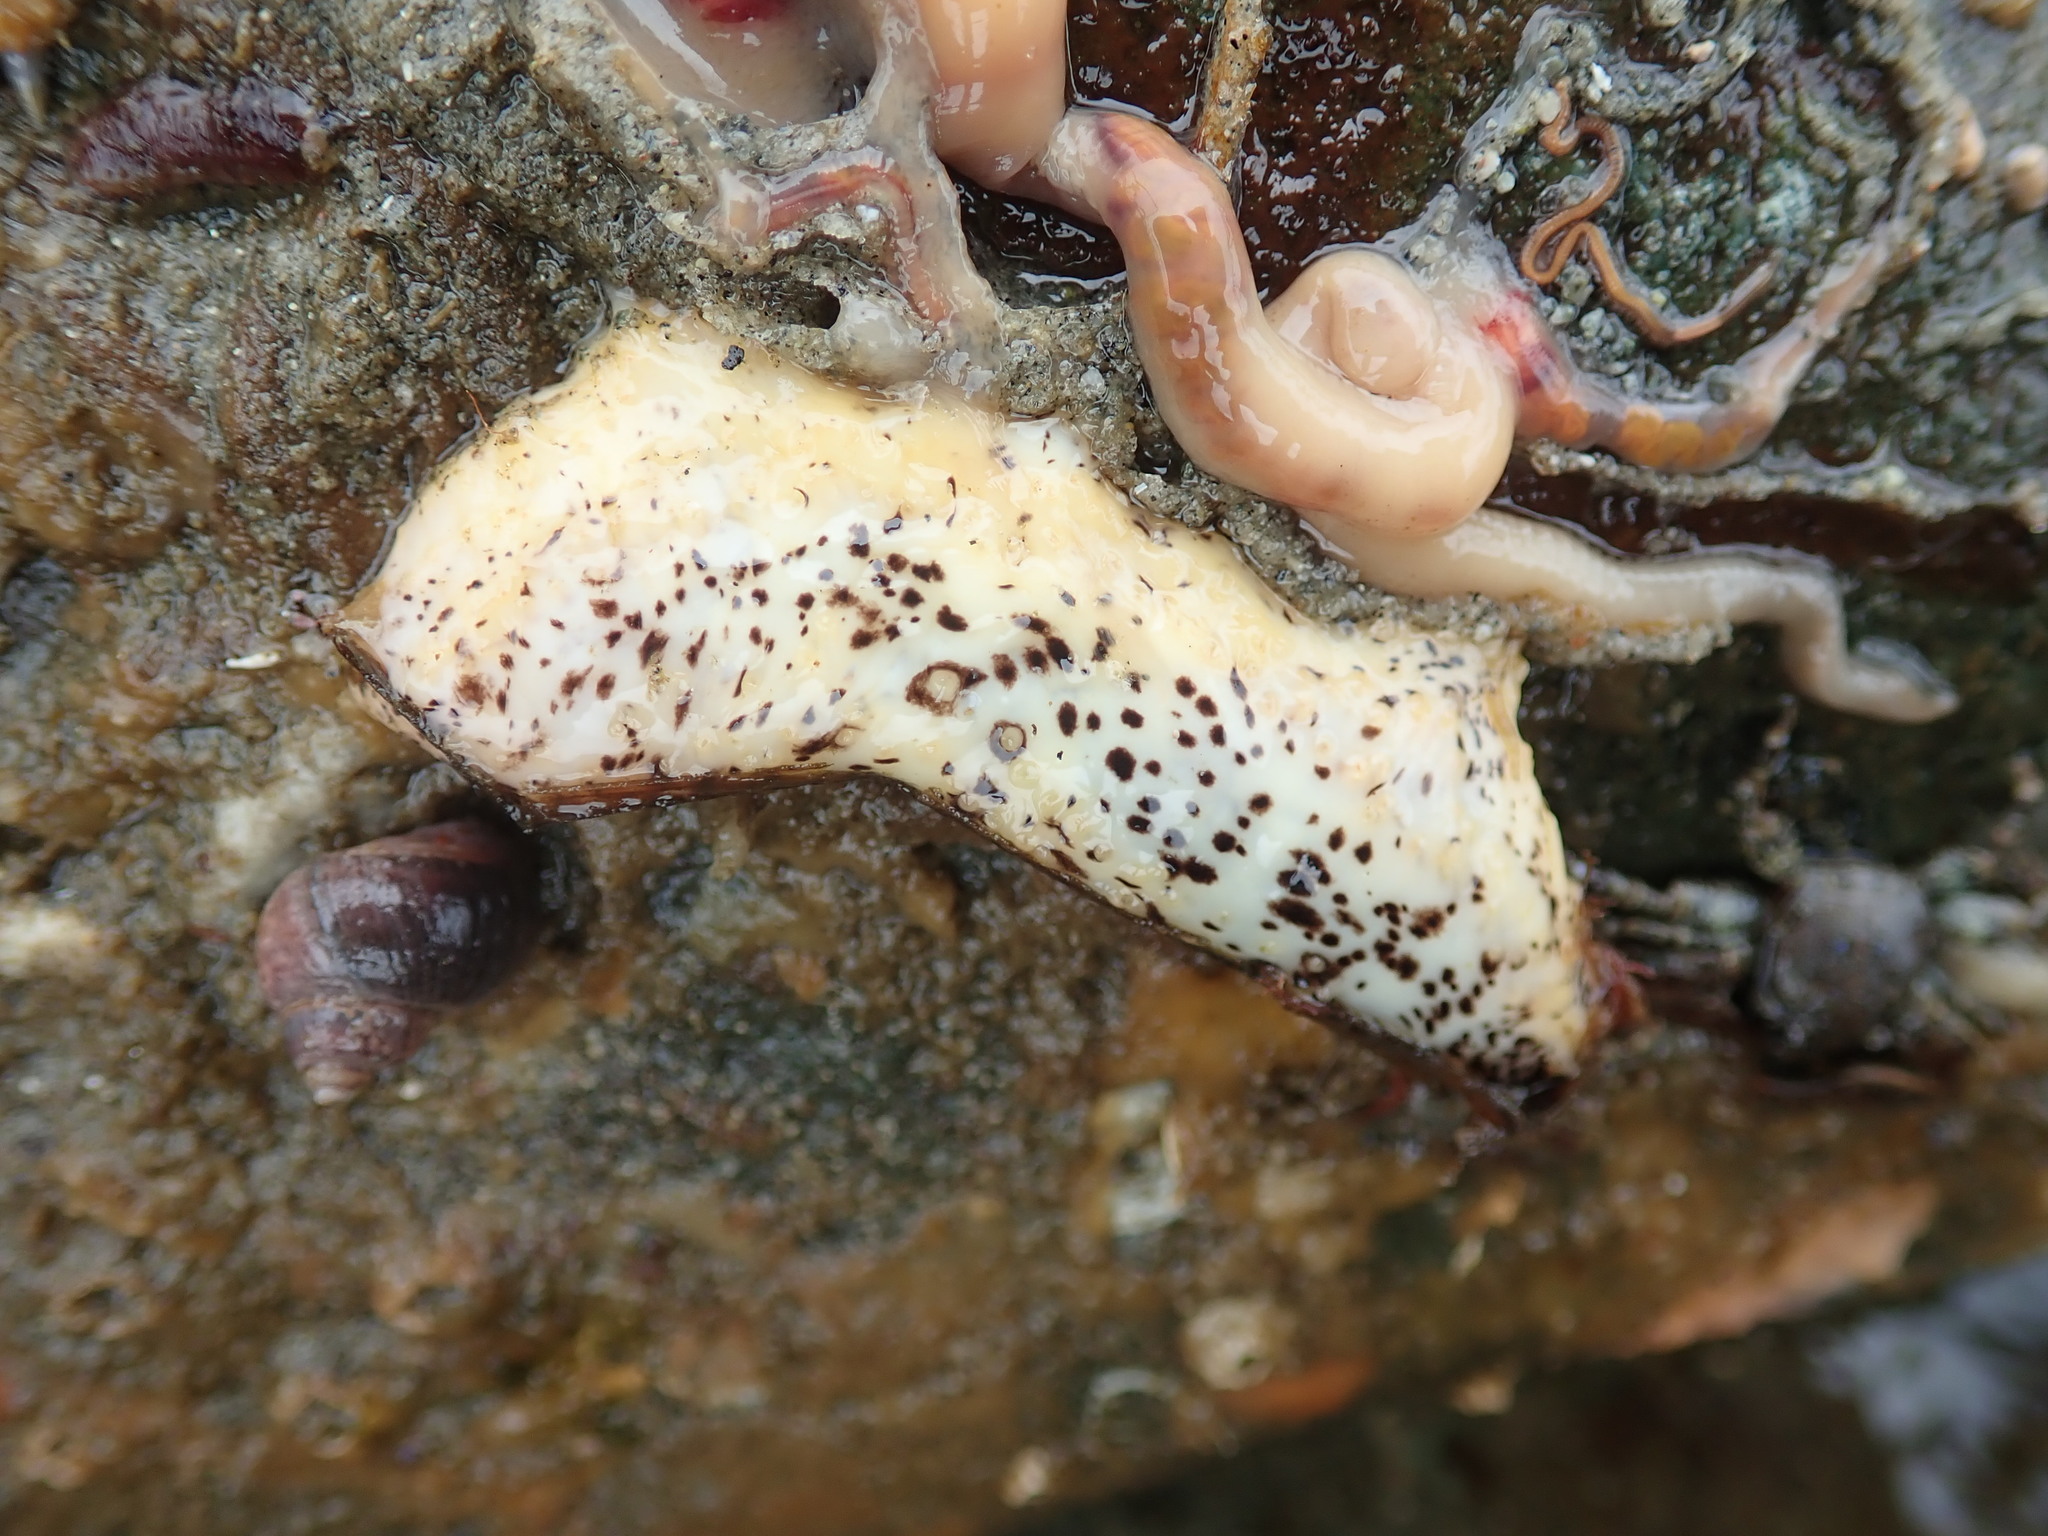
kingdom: Animalia
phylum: Echinodermata
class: Holothuroidea
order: Dendrochirotida
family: Cucumariidae
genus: Cucumaria
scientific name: Cucumaria piperata
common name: Peppered sea cucumber
